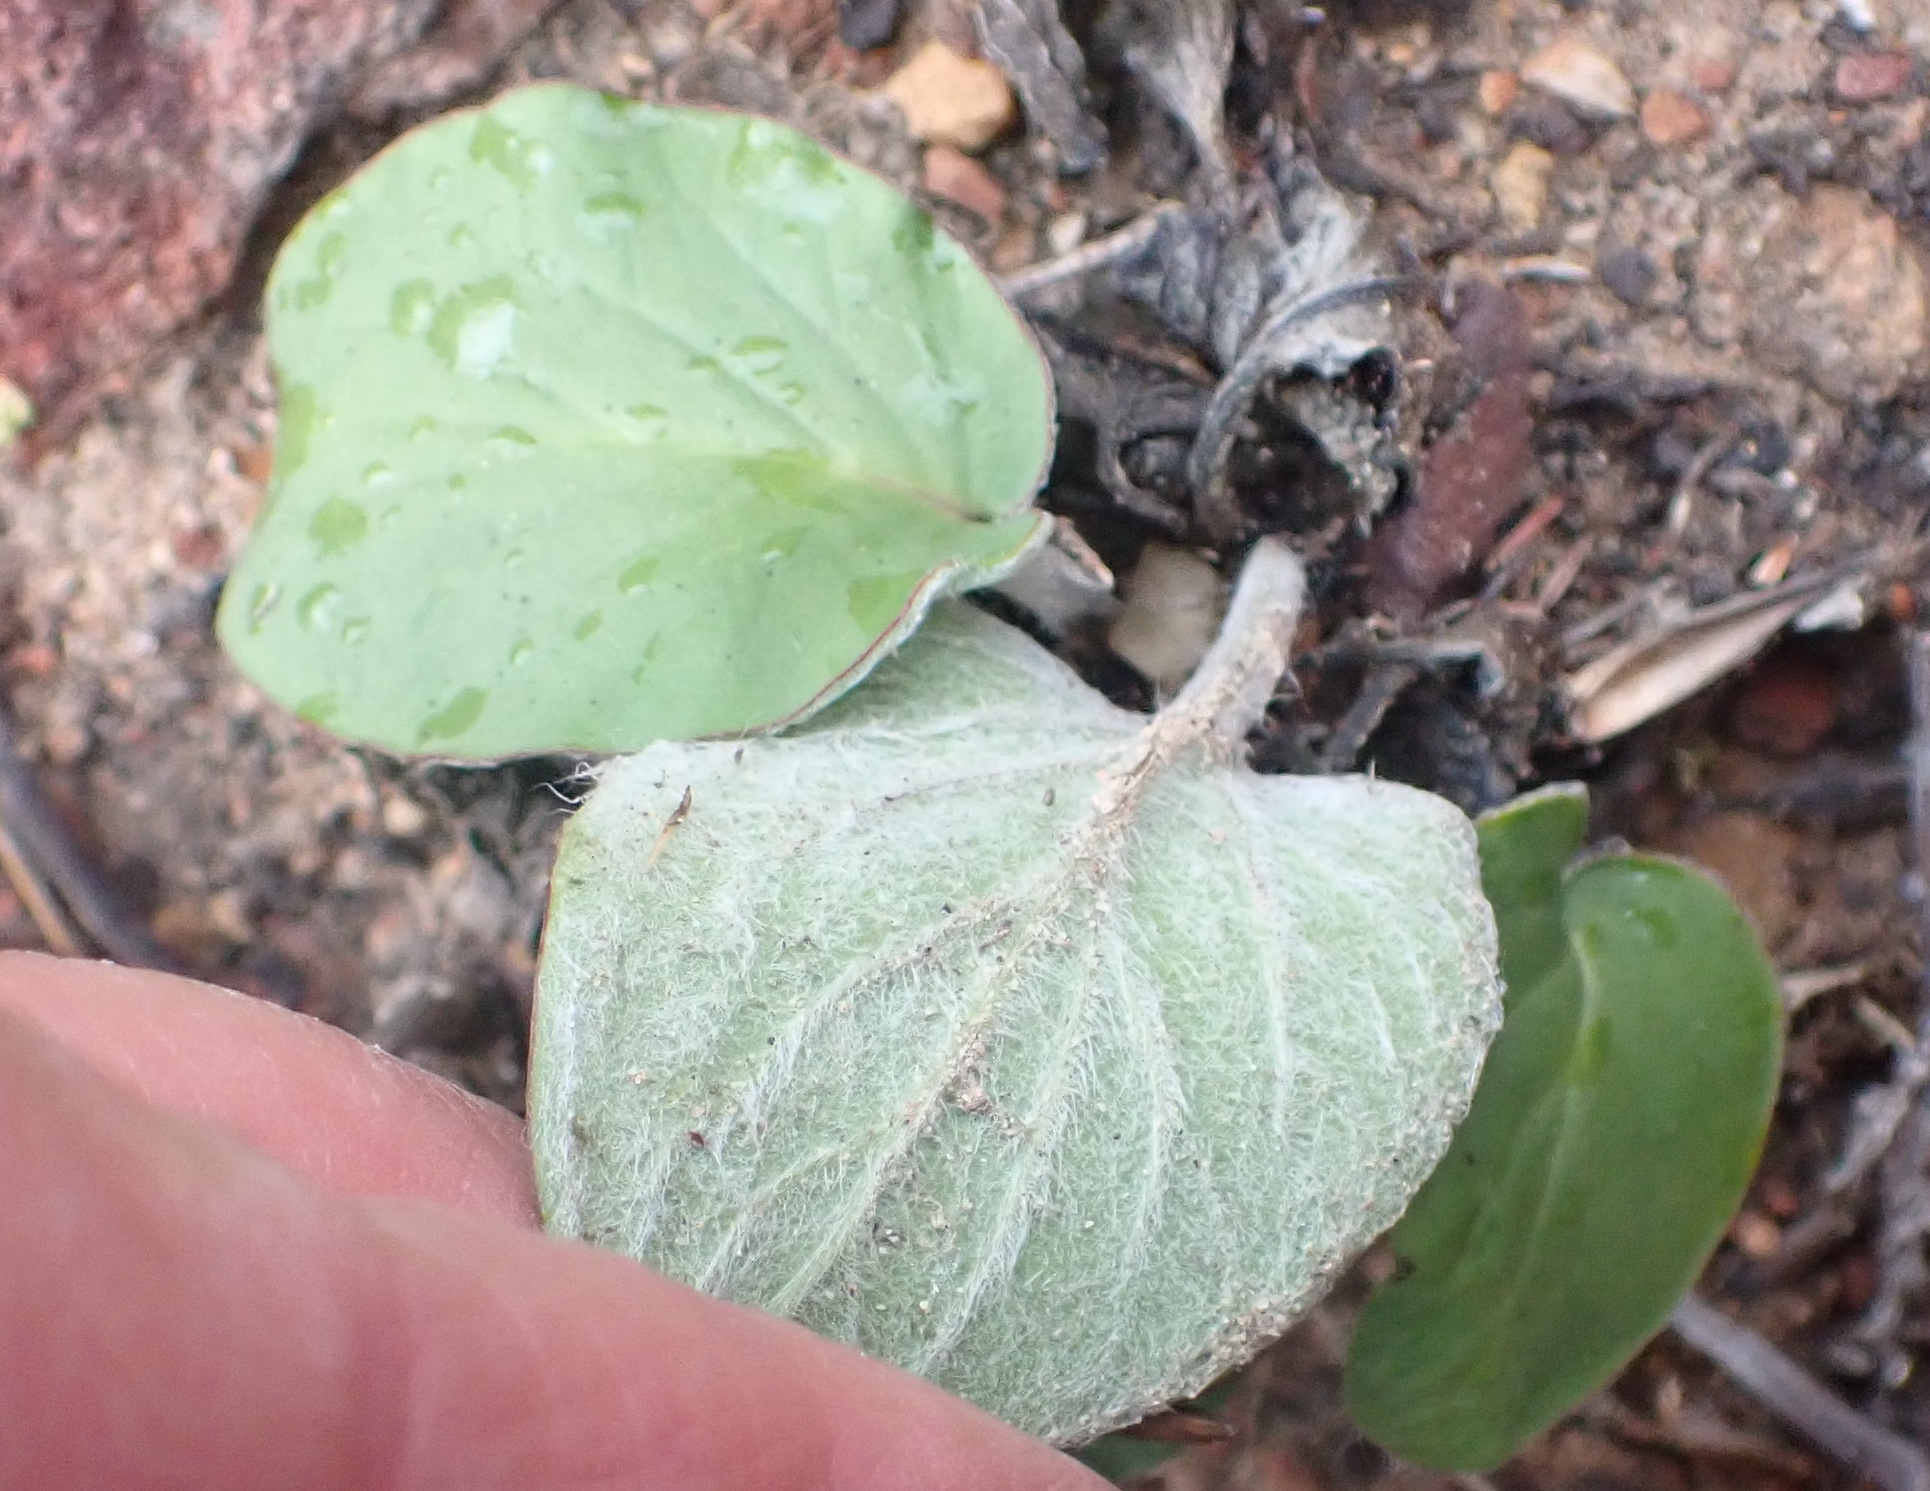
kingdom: Plantae
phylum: Tracheophyta
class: Magnoliopsida
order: Geraniales
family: Geraniaceae
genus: Pelargonium
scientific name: Pelargonium asarifolium
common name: Asarum-leaf pelargonium
